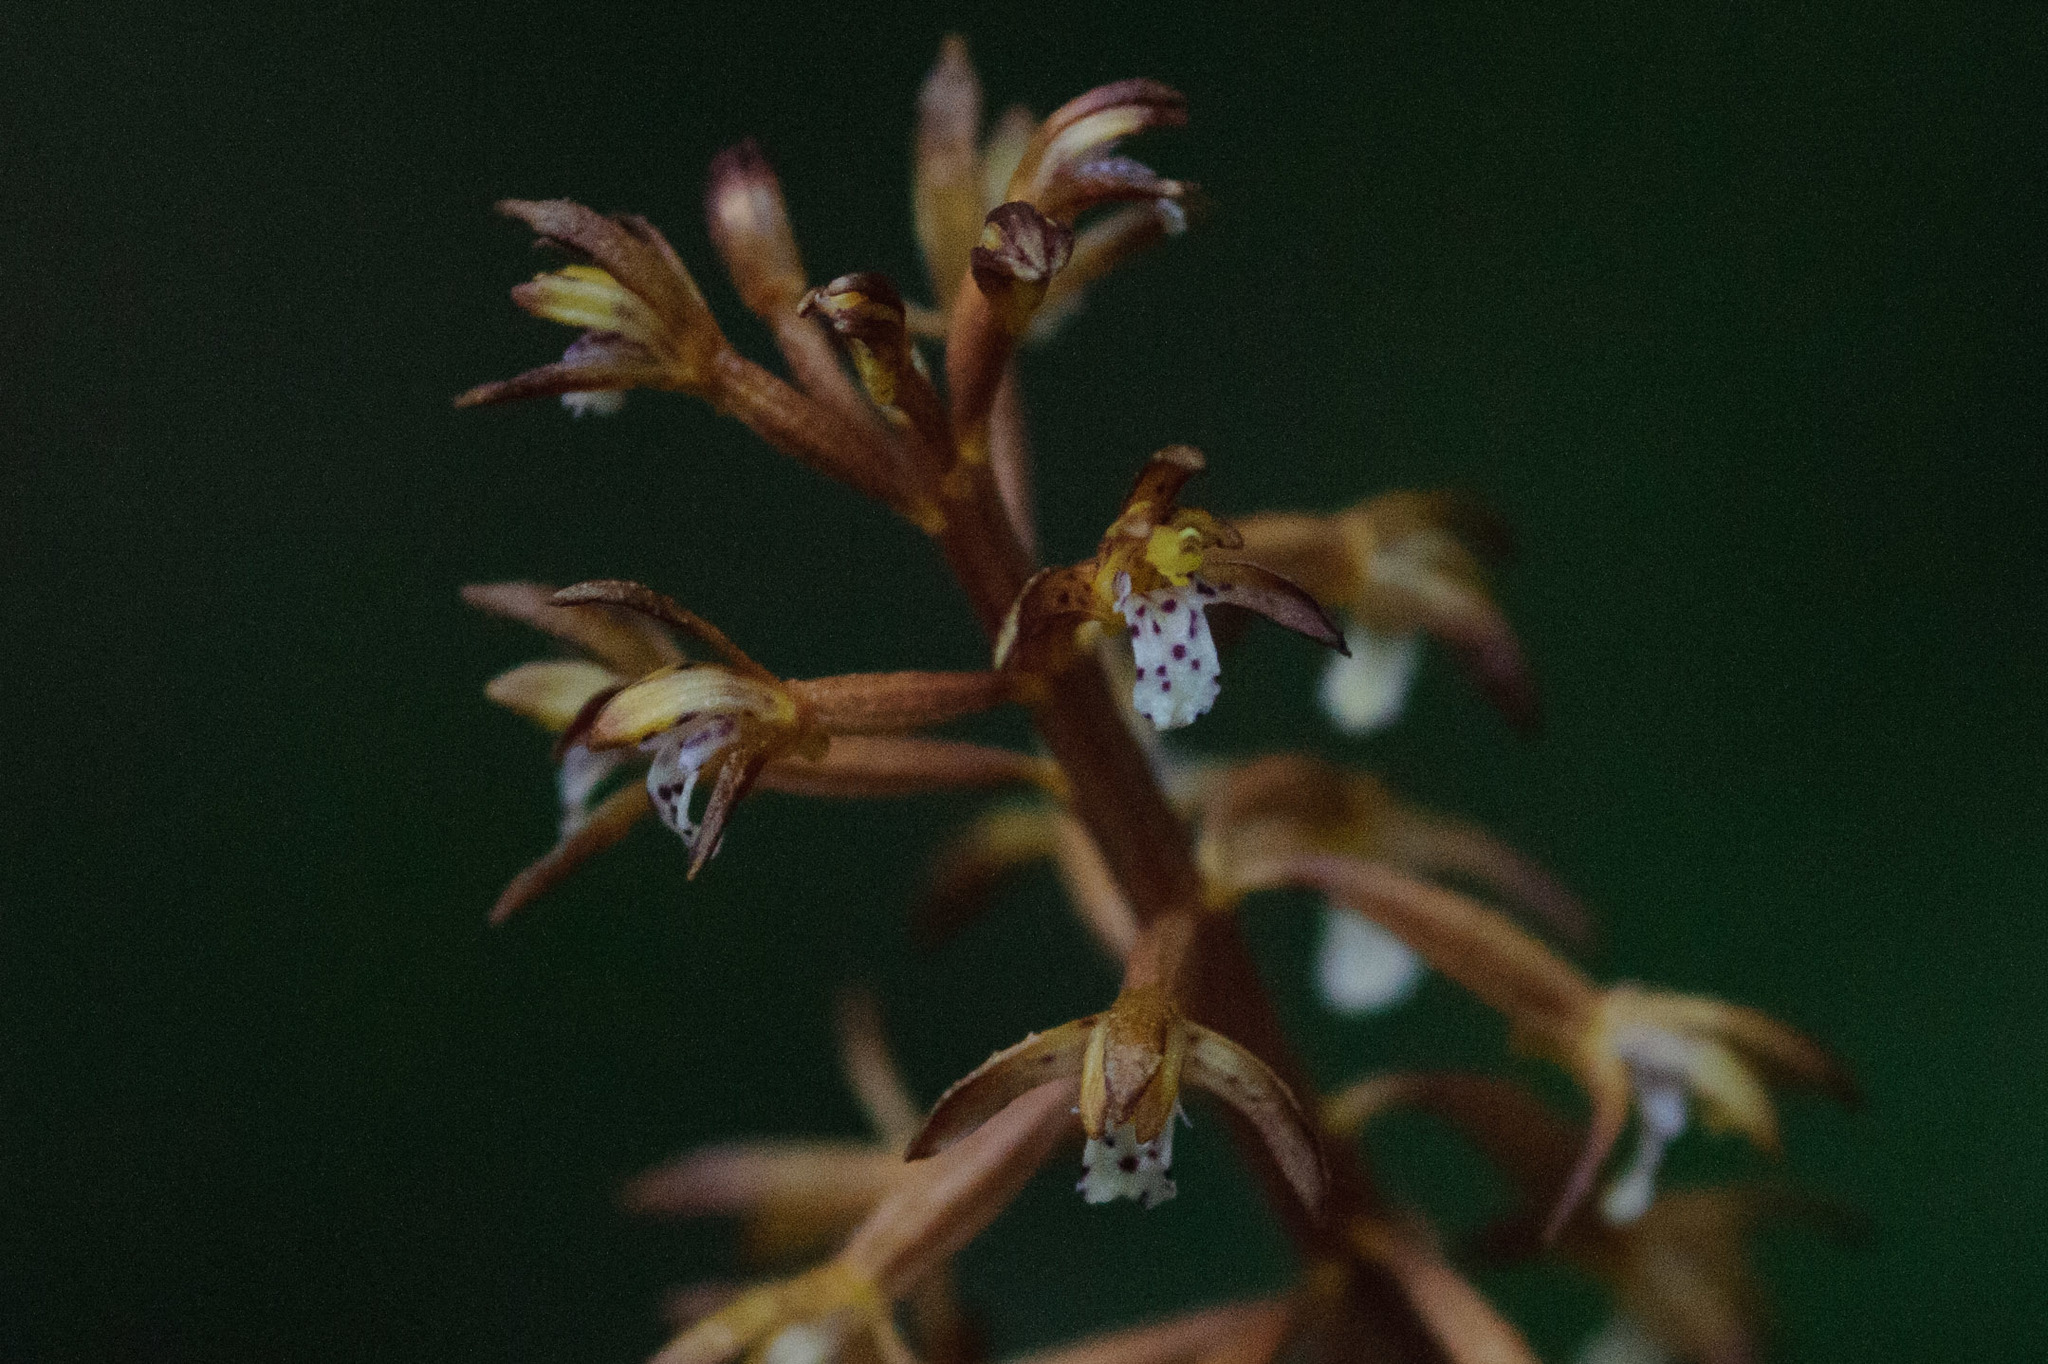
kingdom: Plantae
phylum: Tracheophyta
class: Liliopsida
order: Asparagales
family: Orchidaceae
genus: Corallorhiza
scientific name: Corallorhiza maculata
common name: Spotted coralroot
